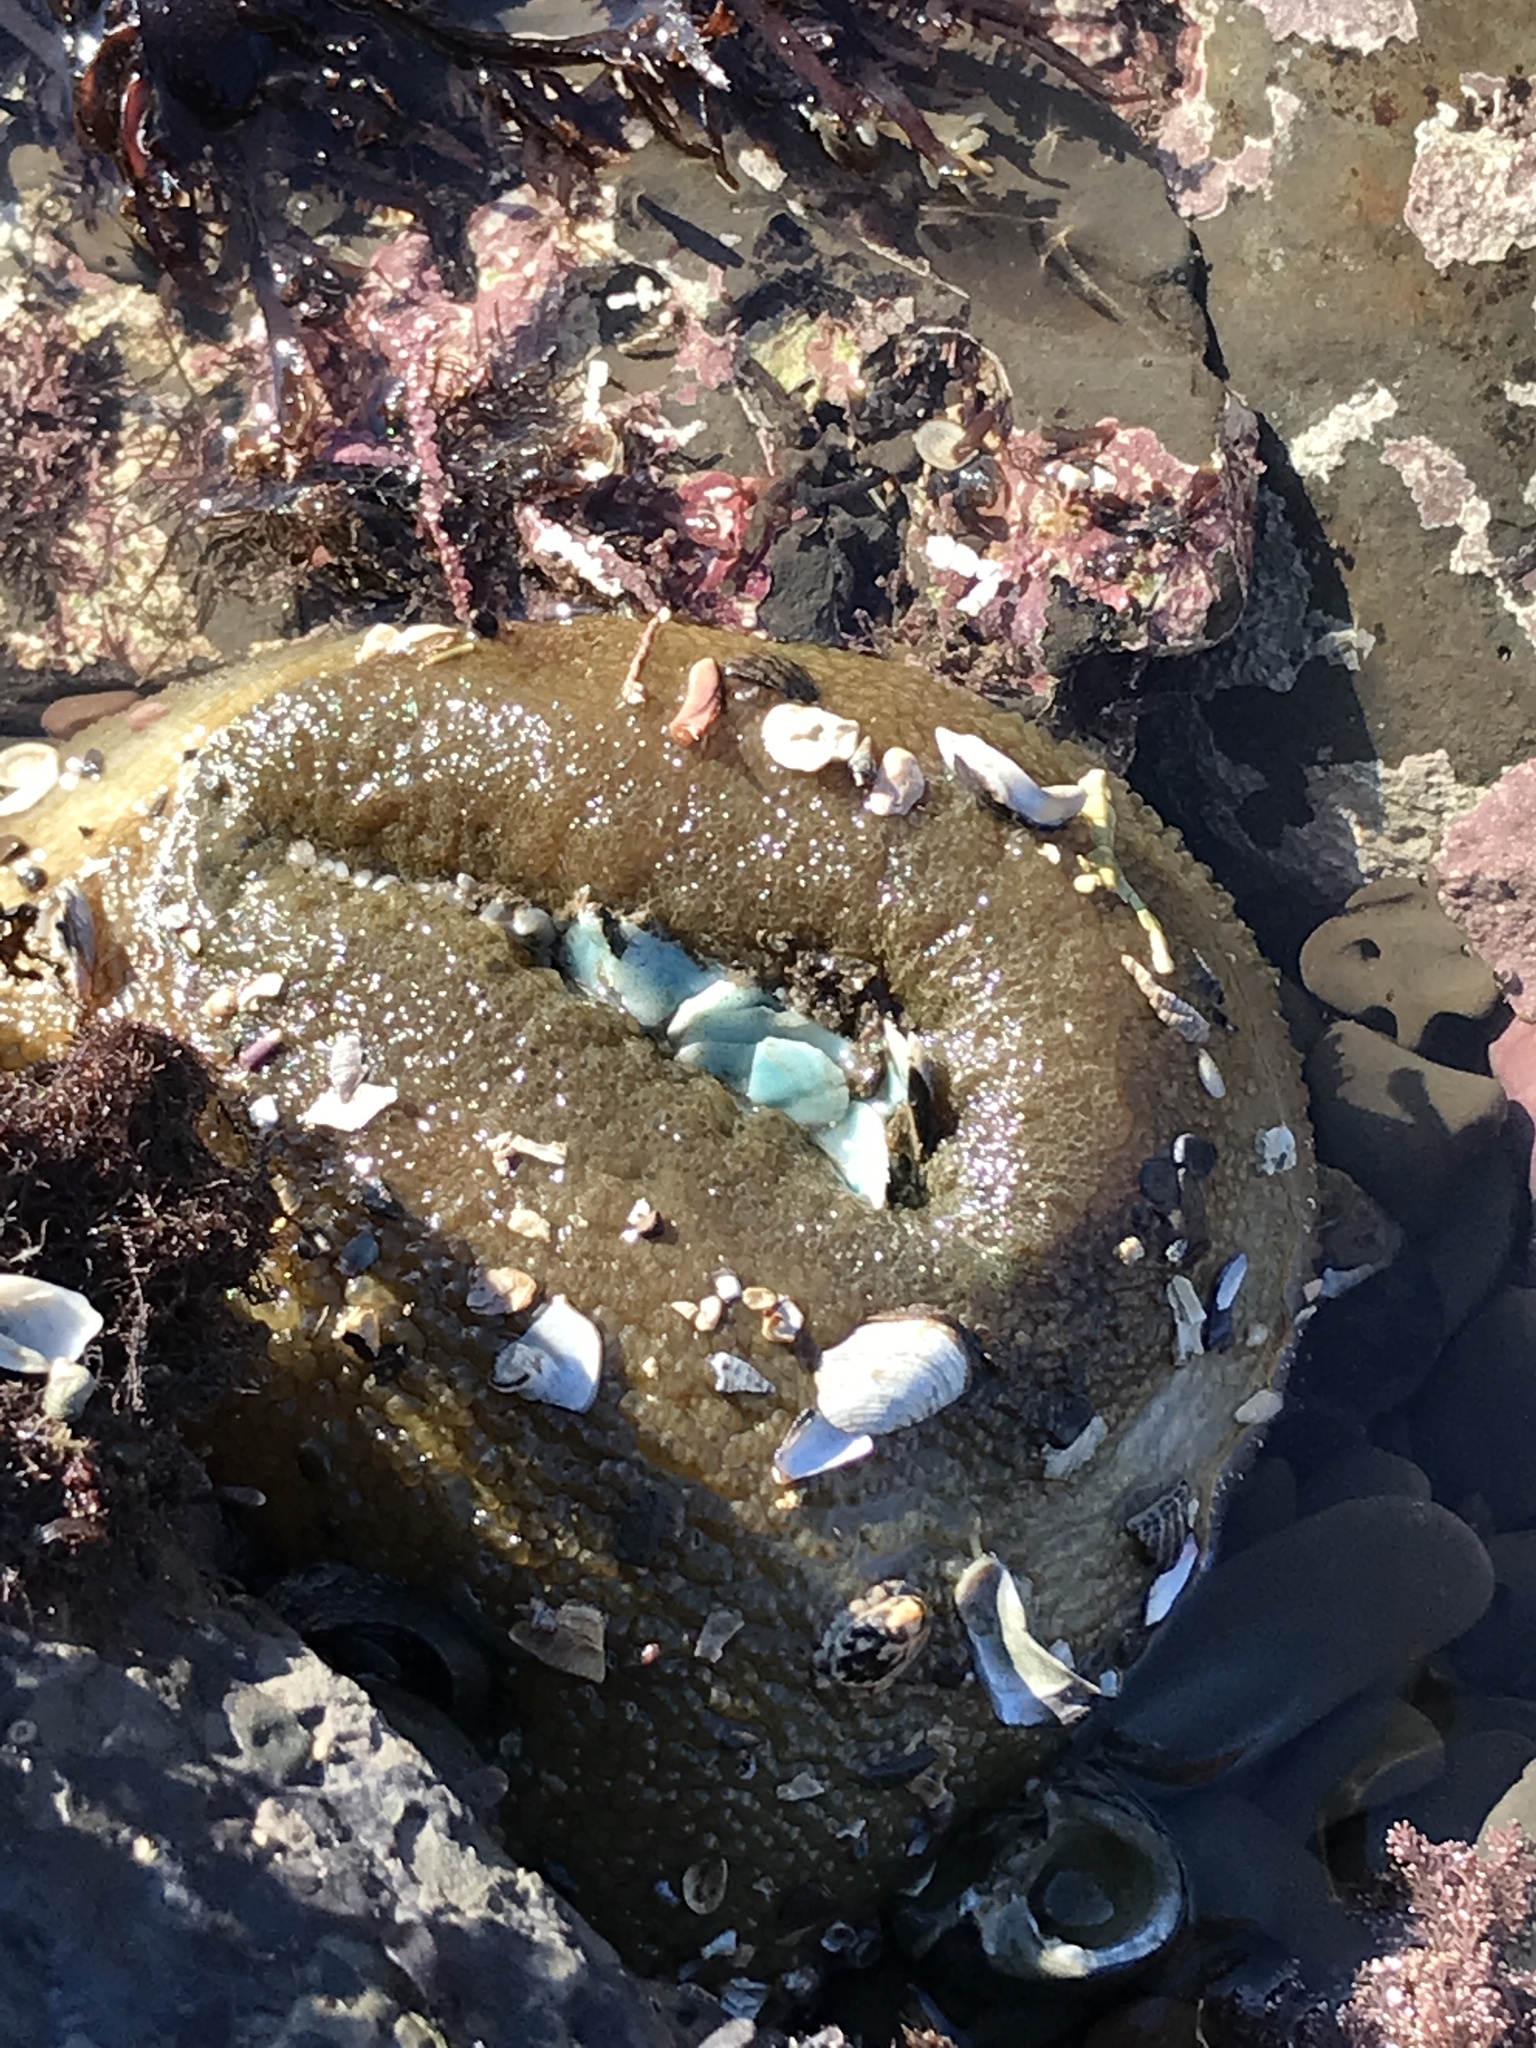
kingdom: Animalia
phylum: Cnidaria
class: Anthozoa
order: Actiniaria
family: Actiniidae
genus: Anthopleura
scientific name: Anthopleura xanthogrammica
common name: Giant green anemone
